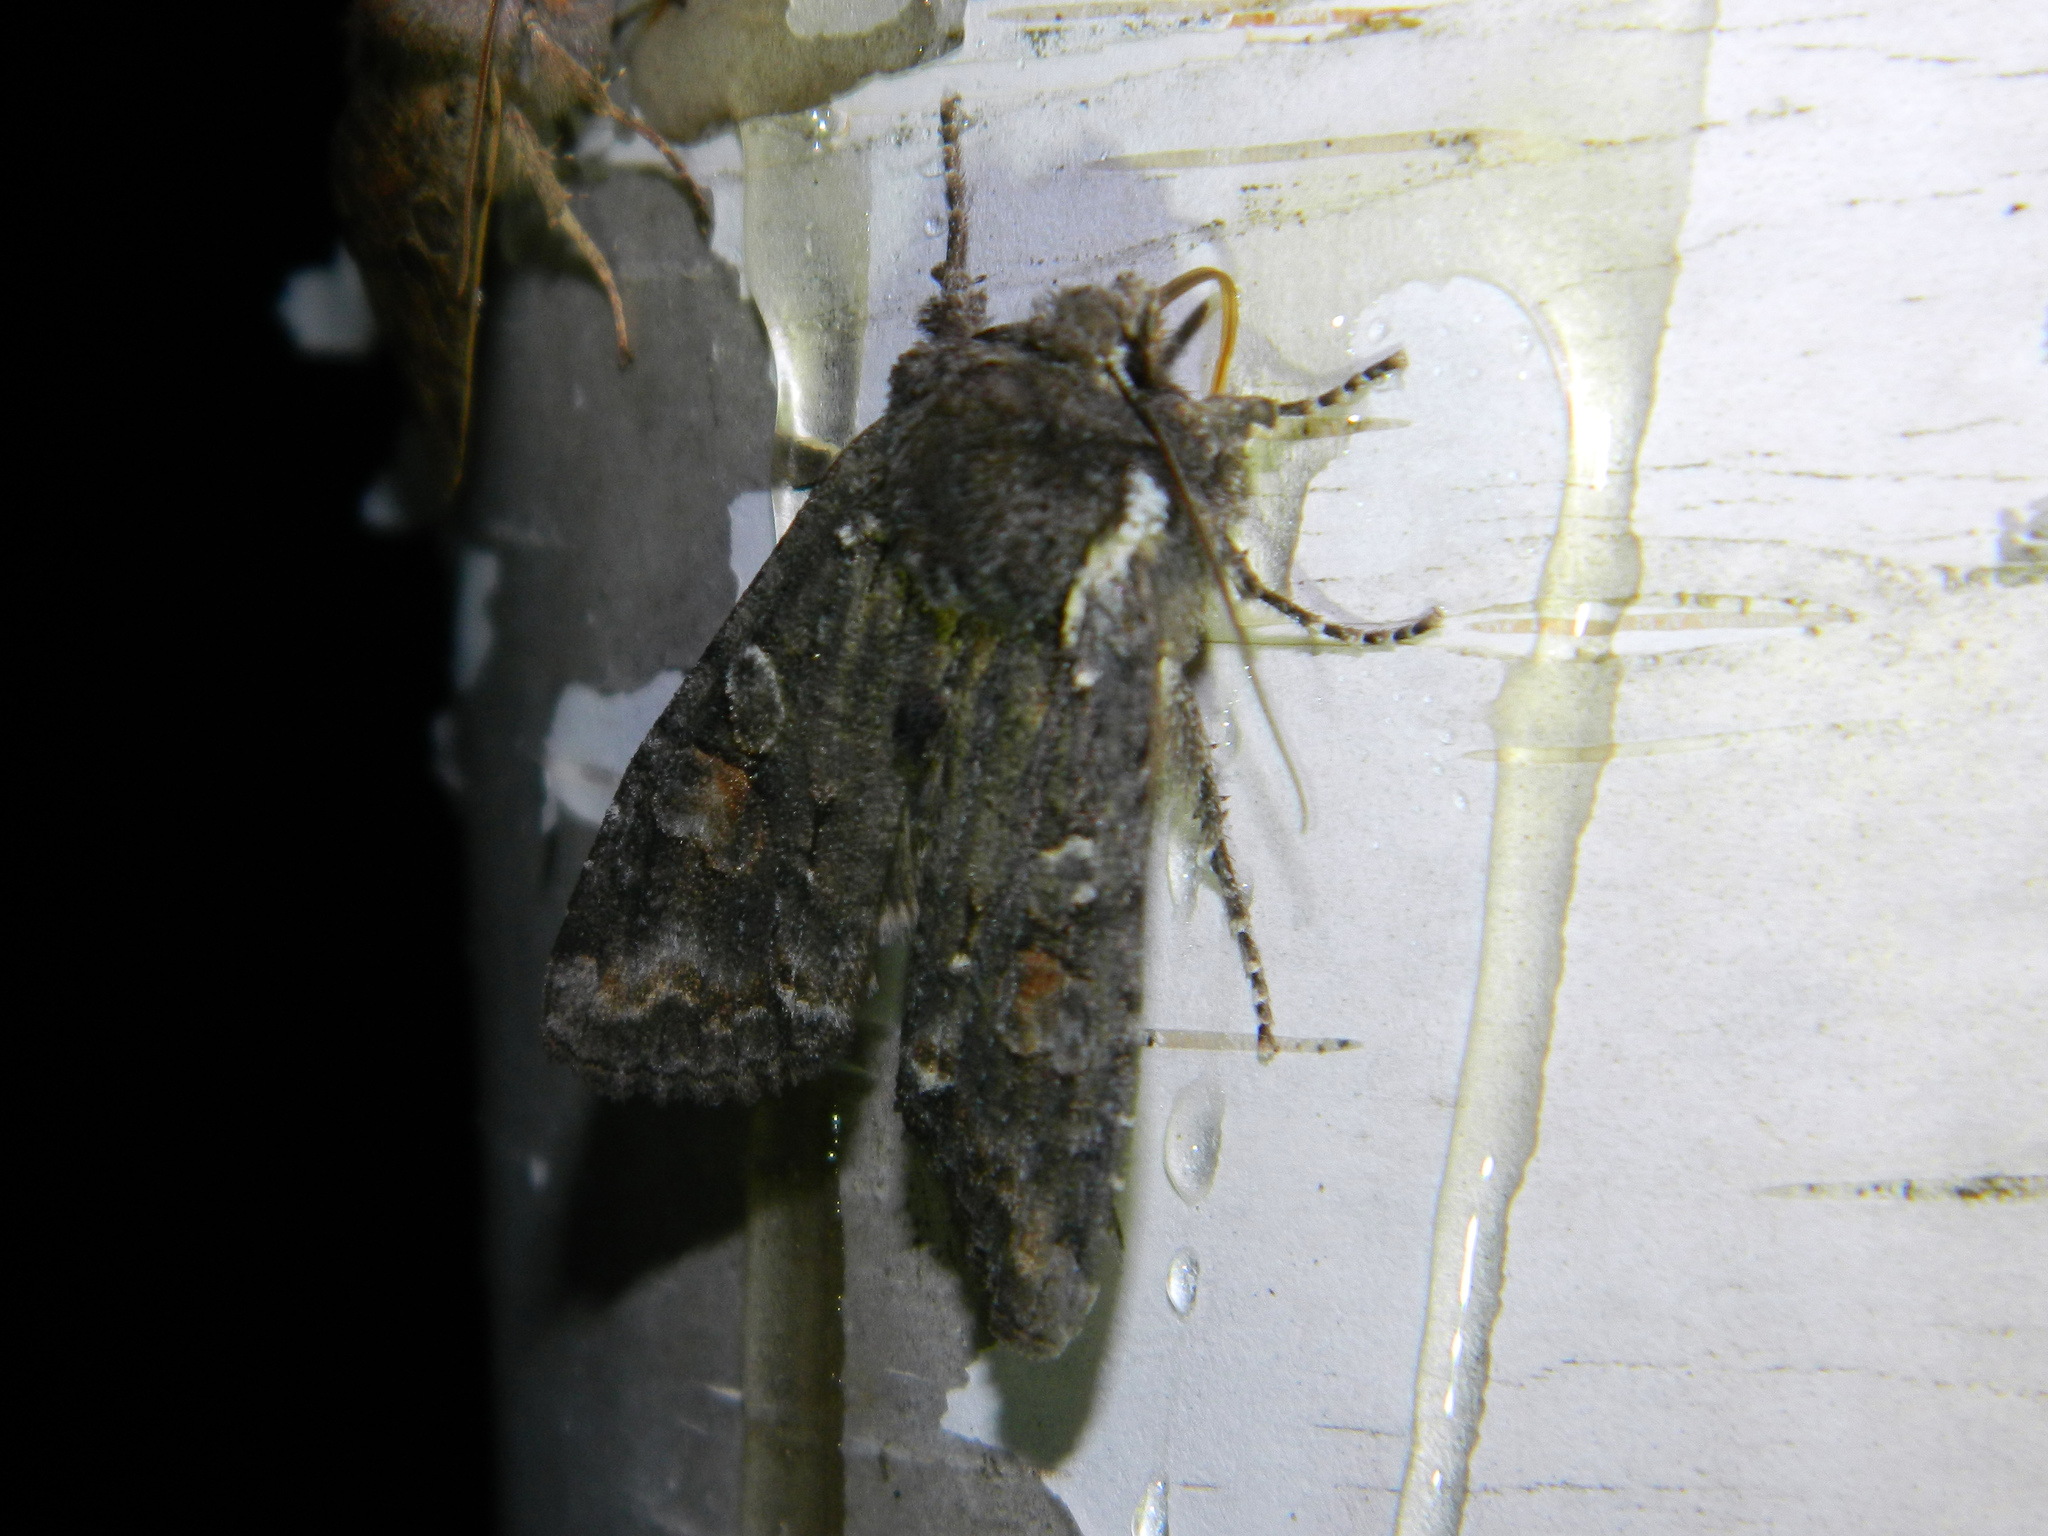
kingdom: Animalia
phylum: Arthropoda
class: Insecta
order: Lepidoptera
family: Noctuidae
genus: Lithophane
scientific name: Lithophane pexata
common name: Plush-naped pinion moth
